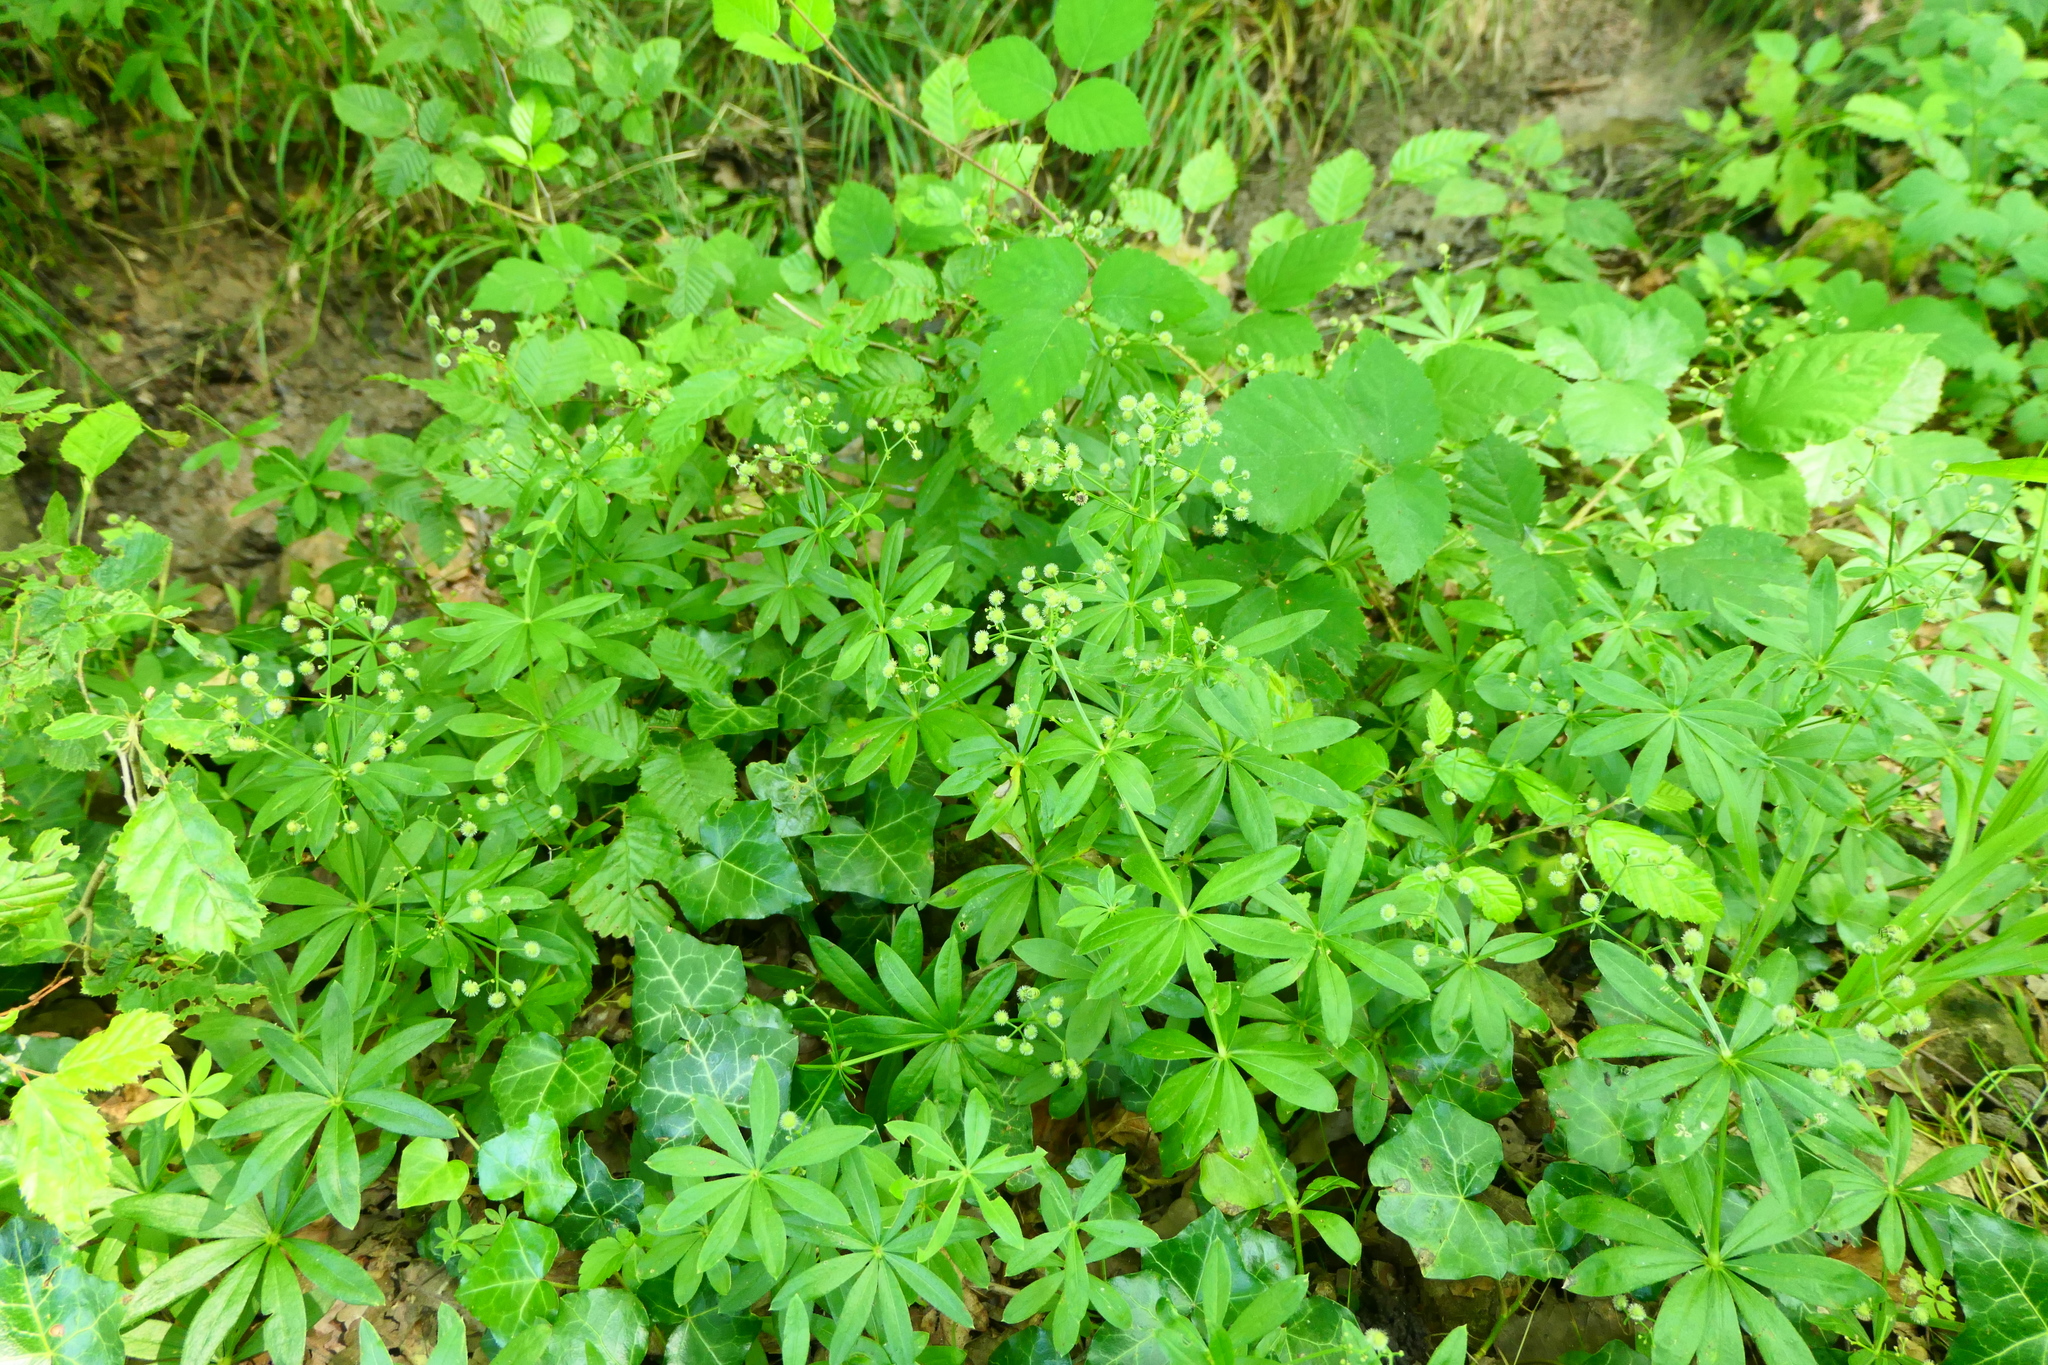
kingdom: Plantae
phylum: Tracheophyta
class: Magnoliopsida
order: Gentianales
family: Rubiaceae
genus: Galium
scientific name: Galium odoratum
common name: Sweet woodruff
